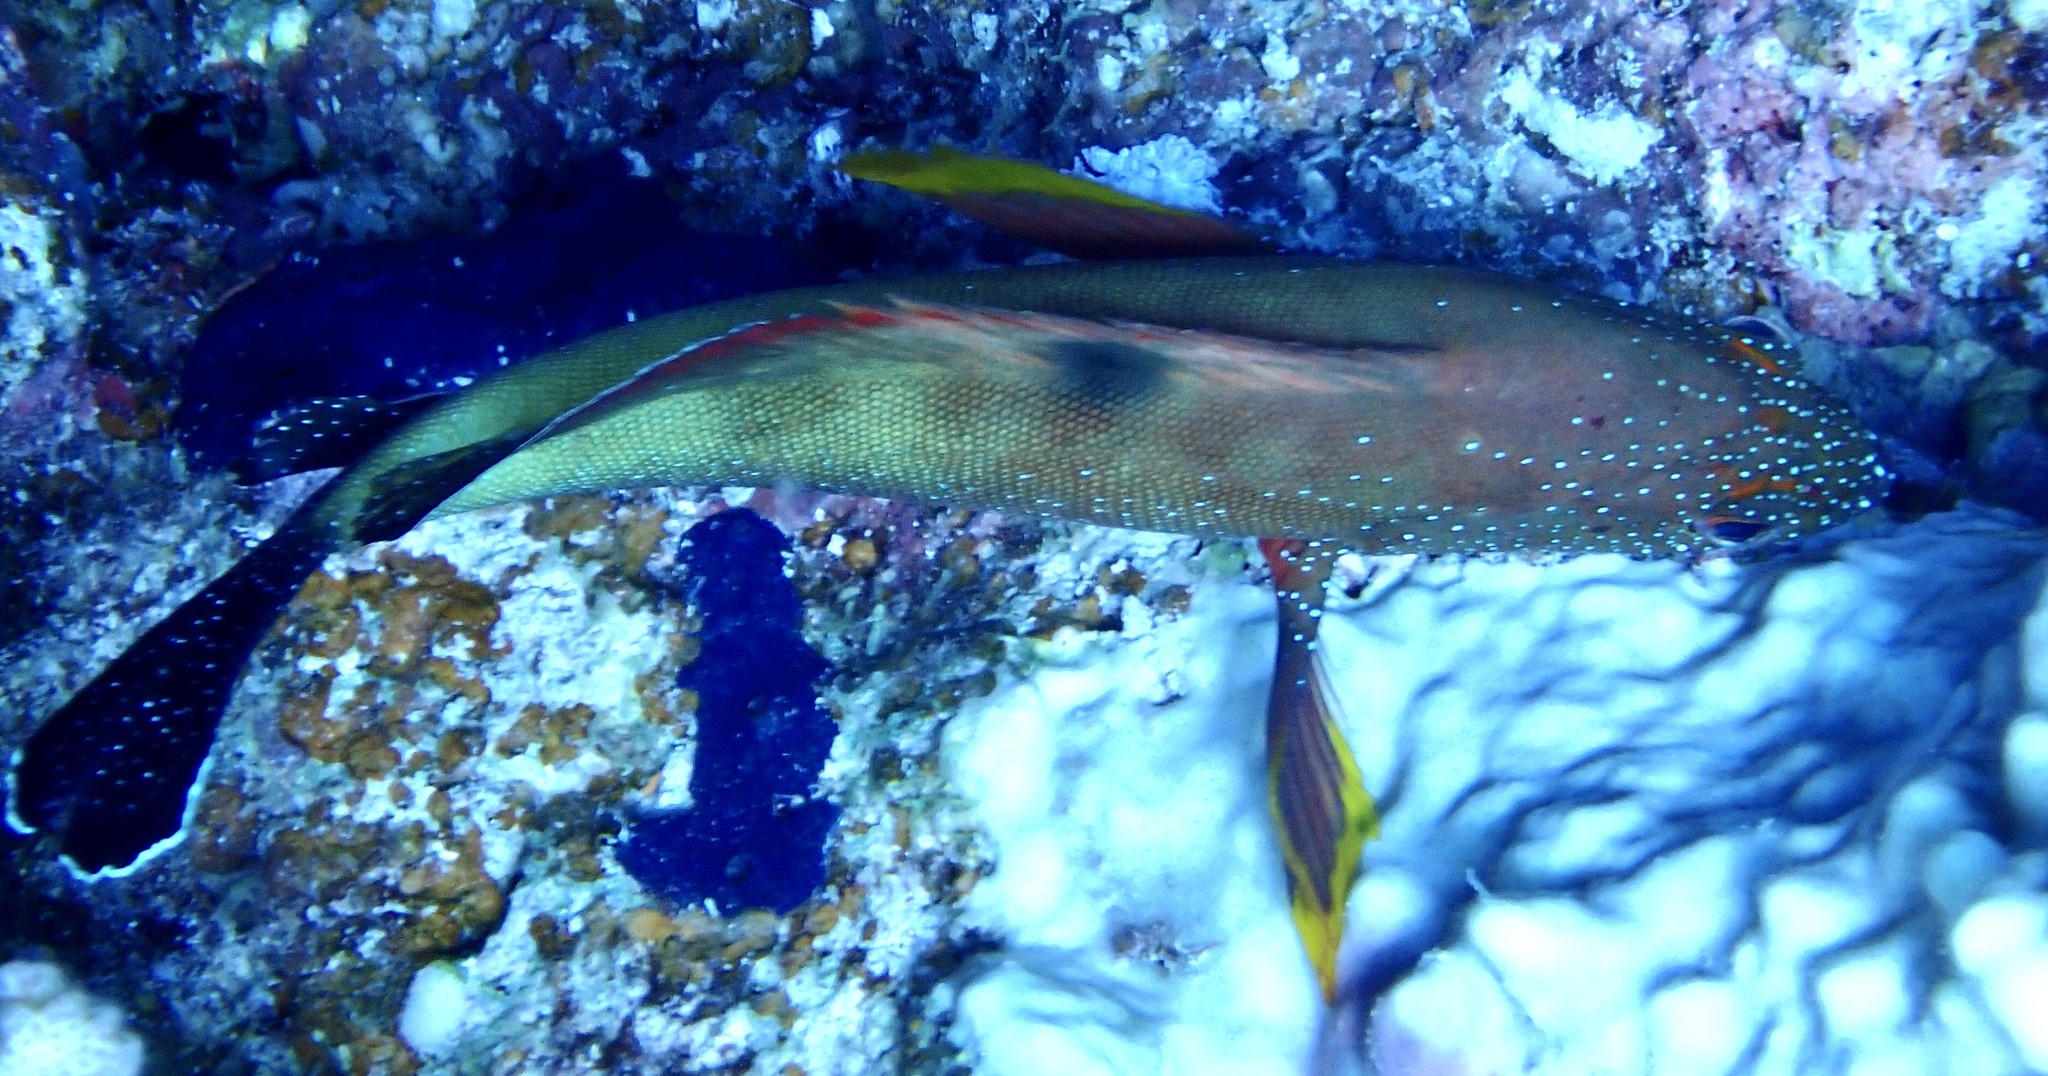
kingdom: Animalia
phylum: Chordata
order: Perciformes
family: Serranidae
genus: Cephalopholis
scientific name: Cephalopholis hemistiktos
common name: Halfspotted hind
